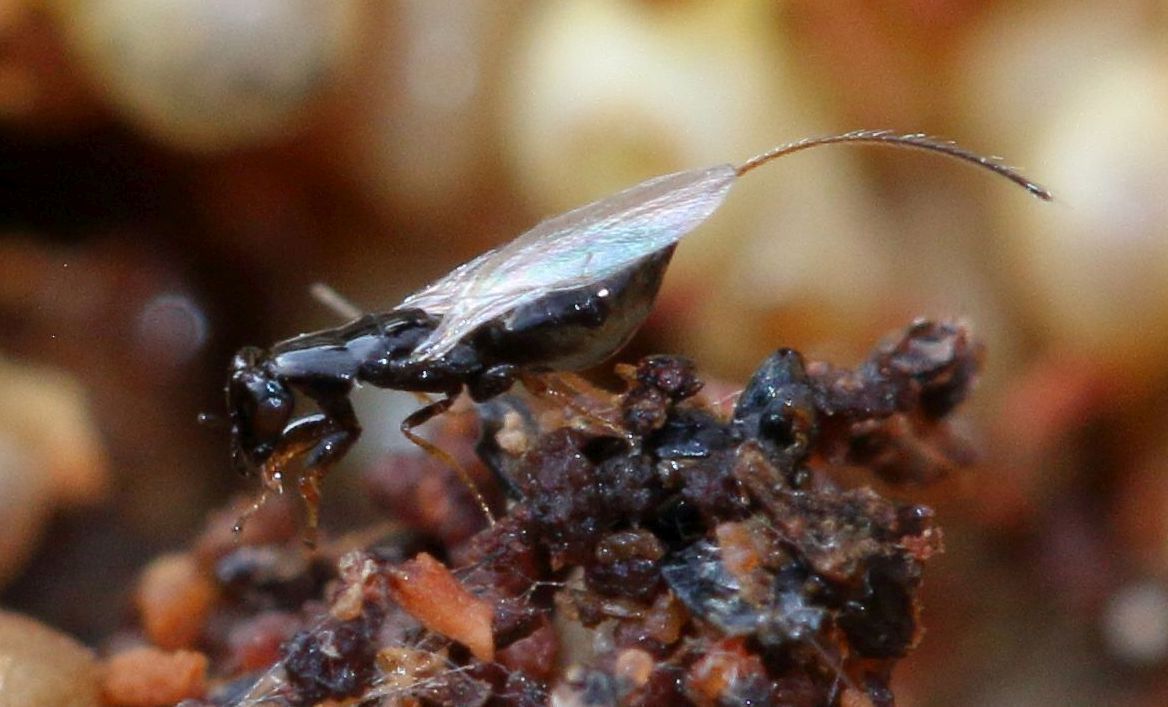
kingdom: Animalia
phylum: Arthropoda
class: Insecta
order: Hymenoptera
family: Agaonidae
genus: Sycophaga
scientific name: Sycophaga sycomori
